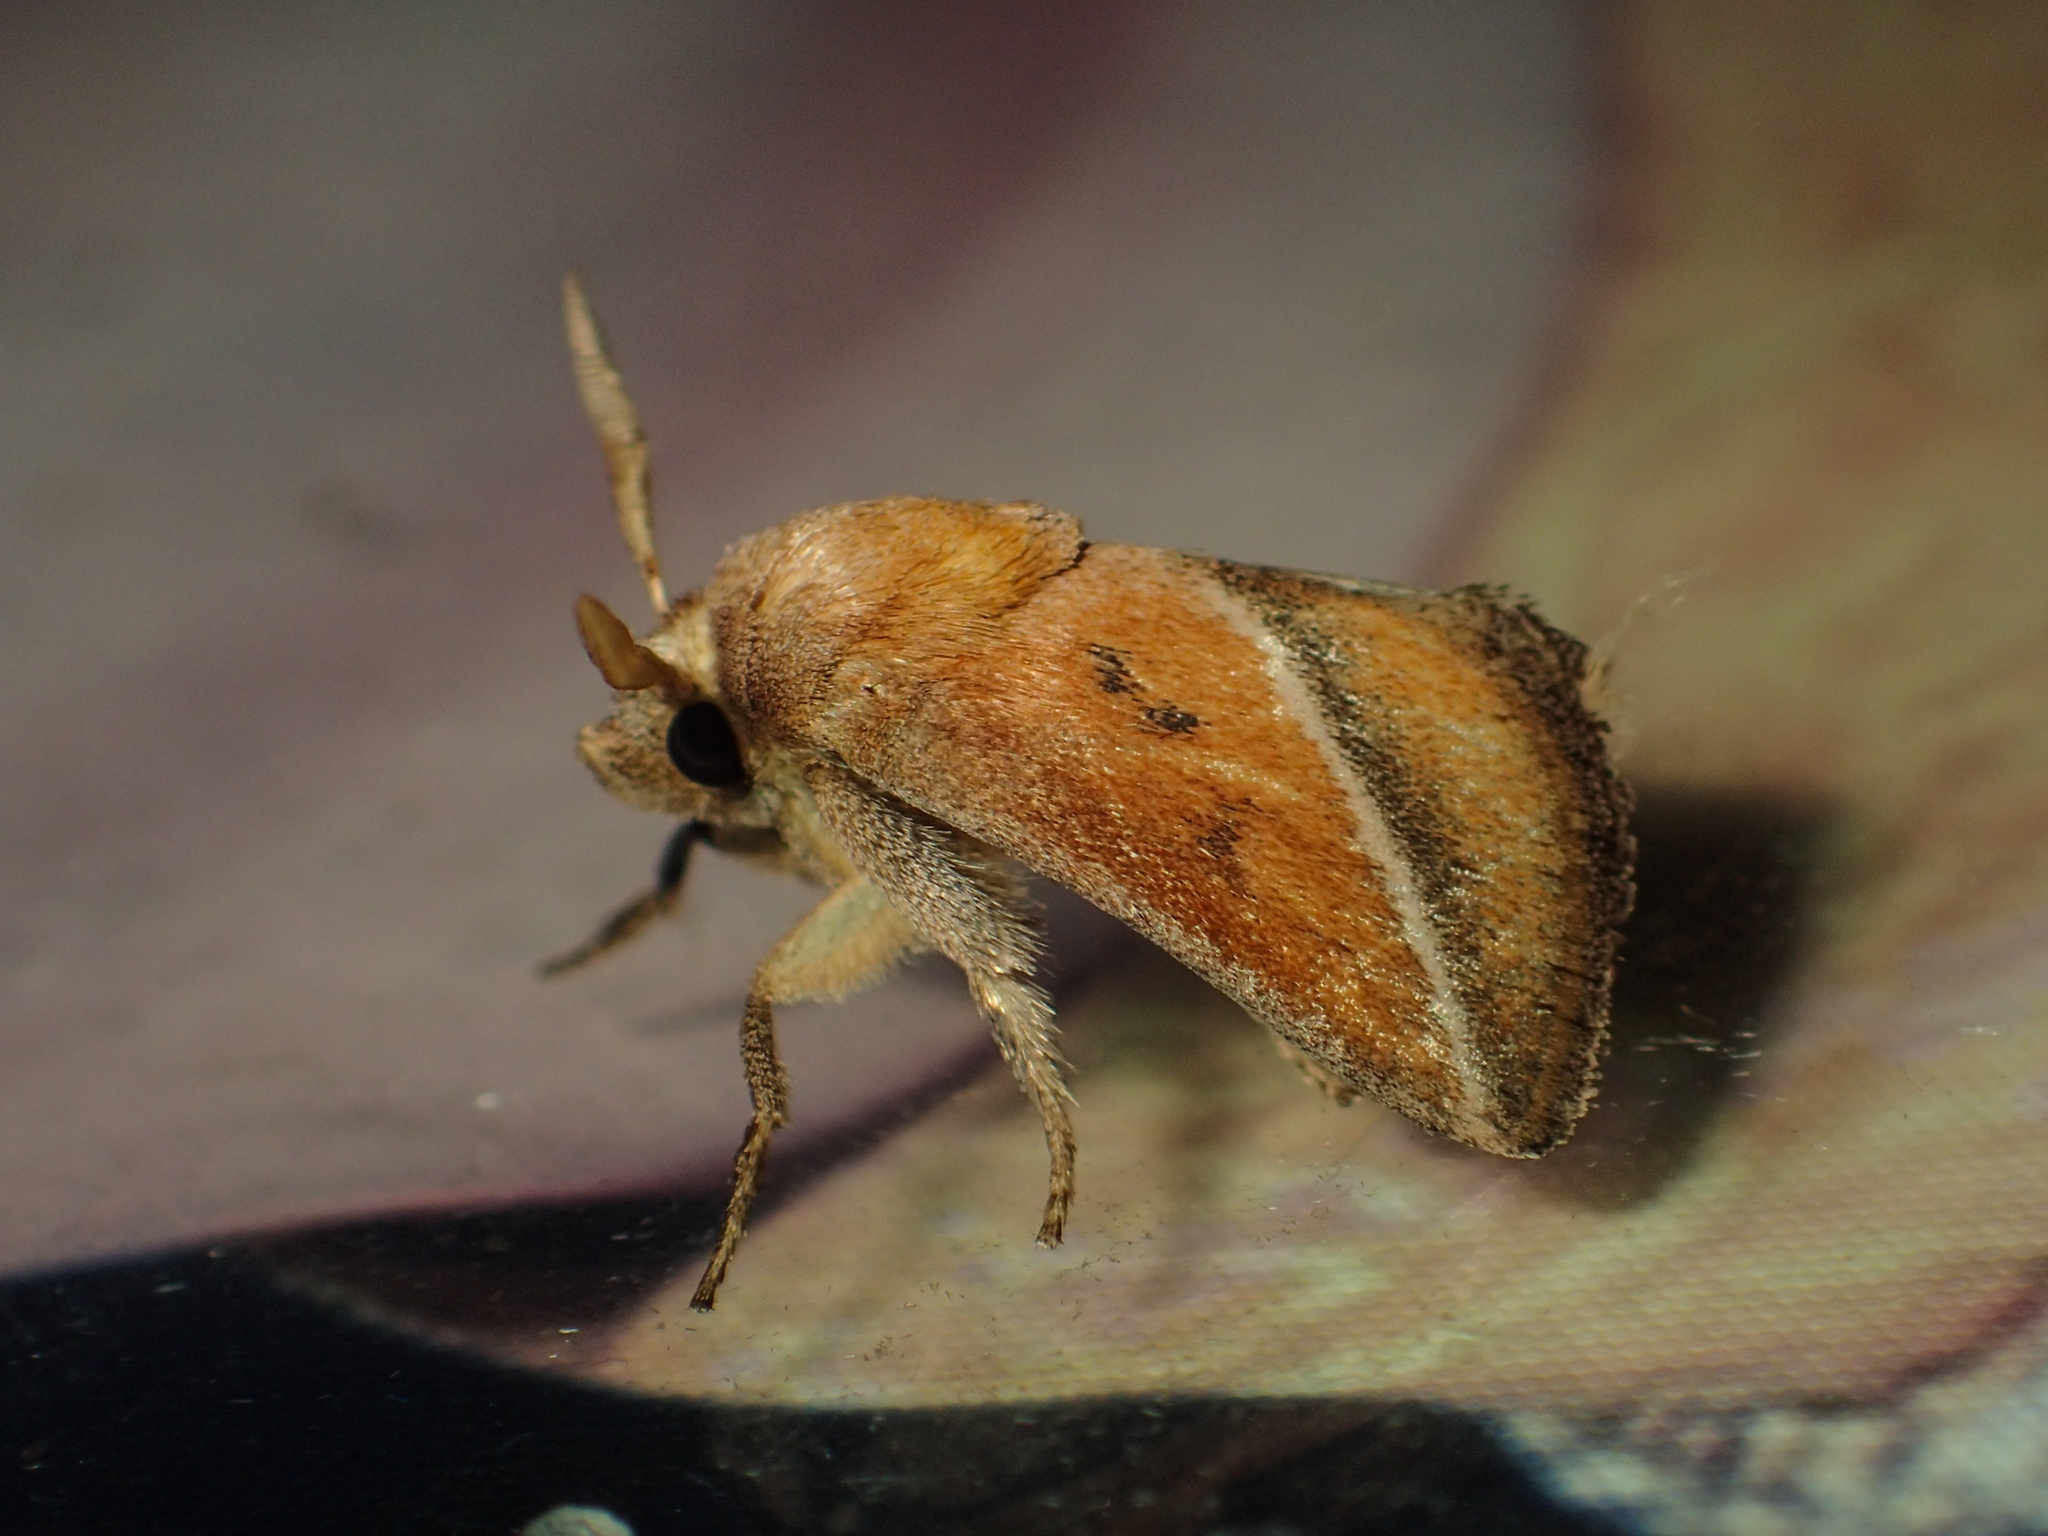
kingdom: Animalia
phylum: Arthropoda
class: Insecta
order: Lepidoptera
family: Limacodidae
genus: Oxyplax
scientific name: Oxyplax pallivitta
